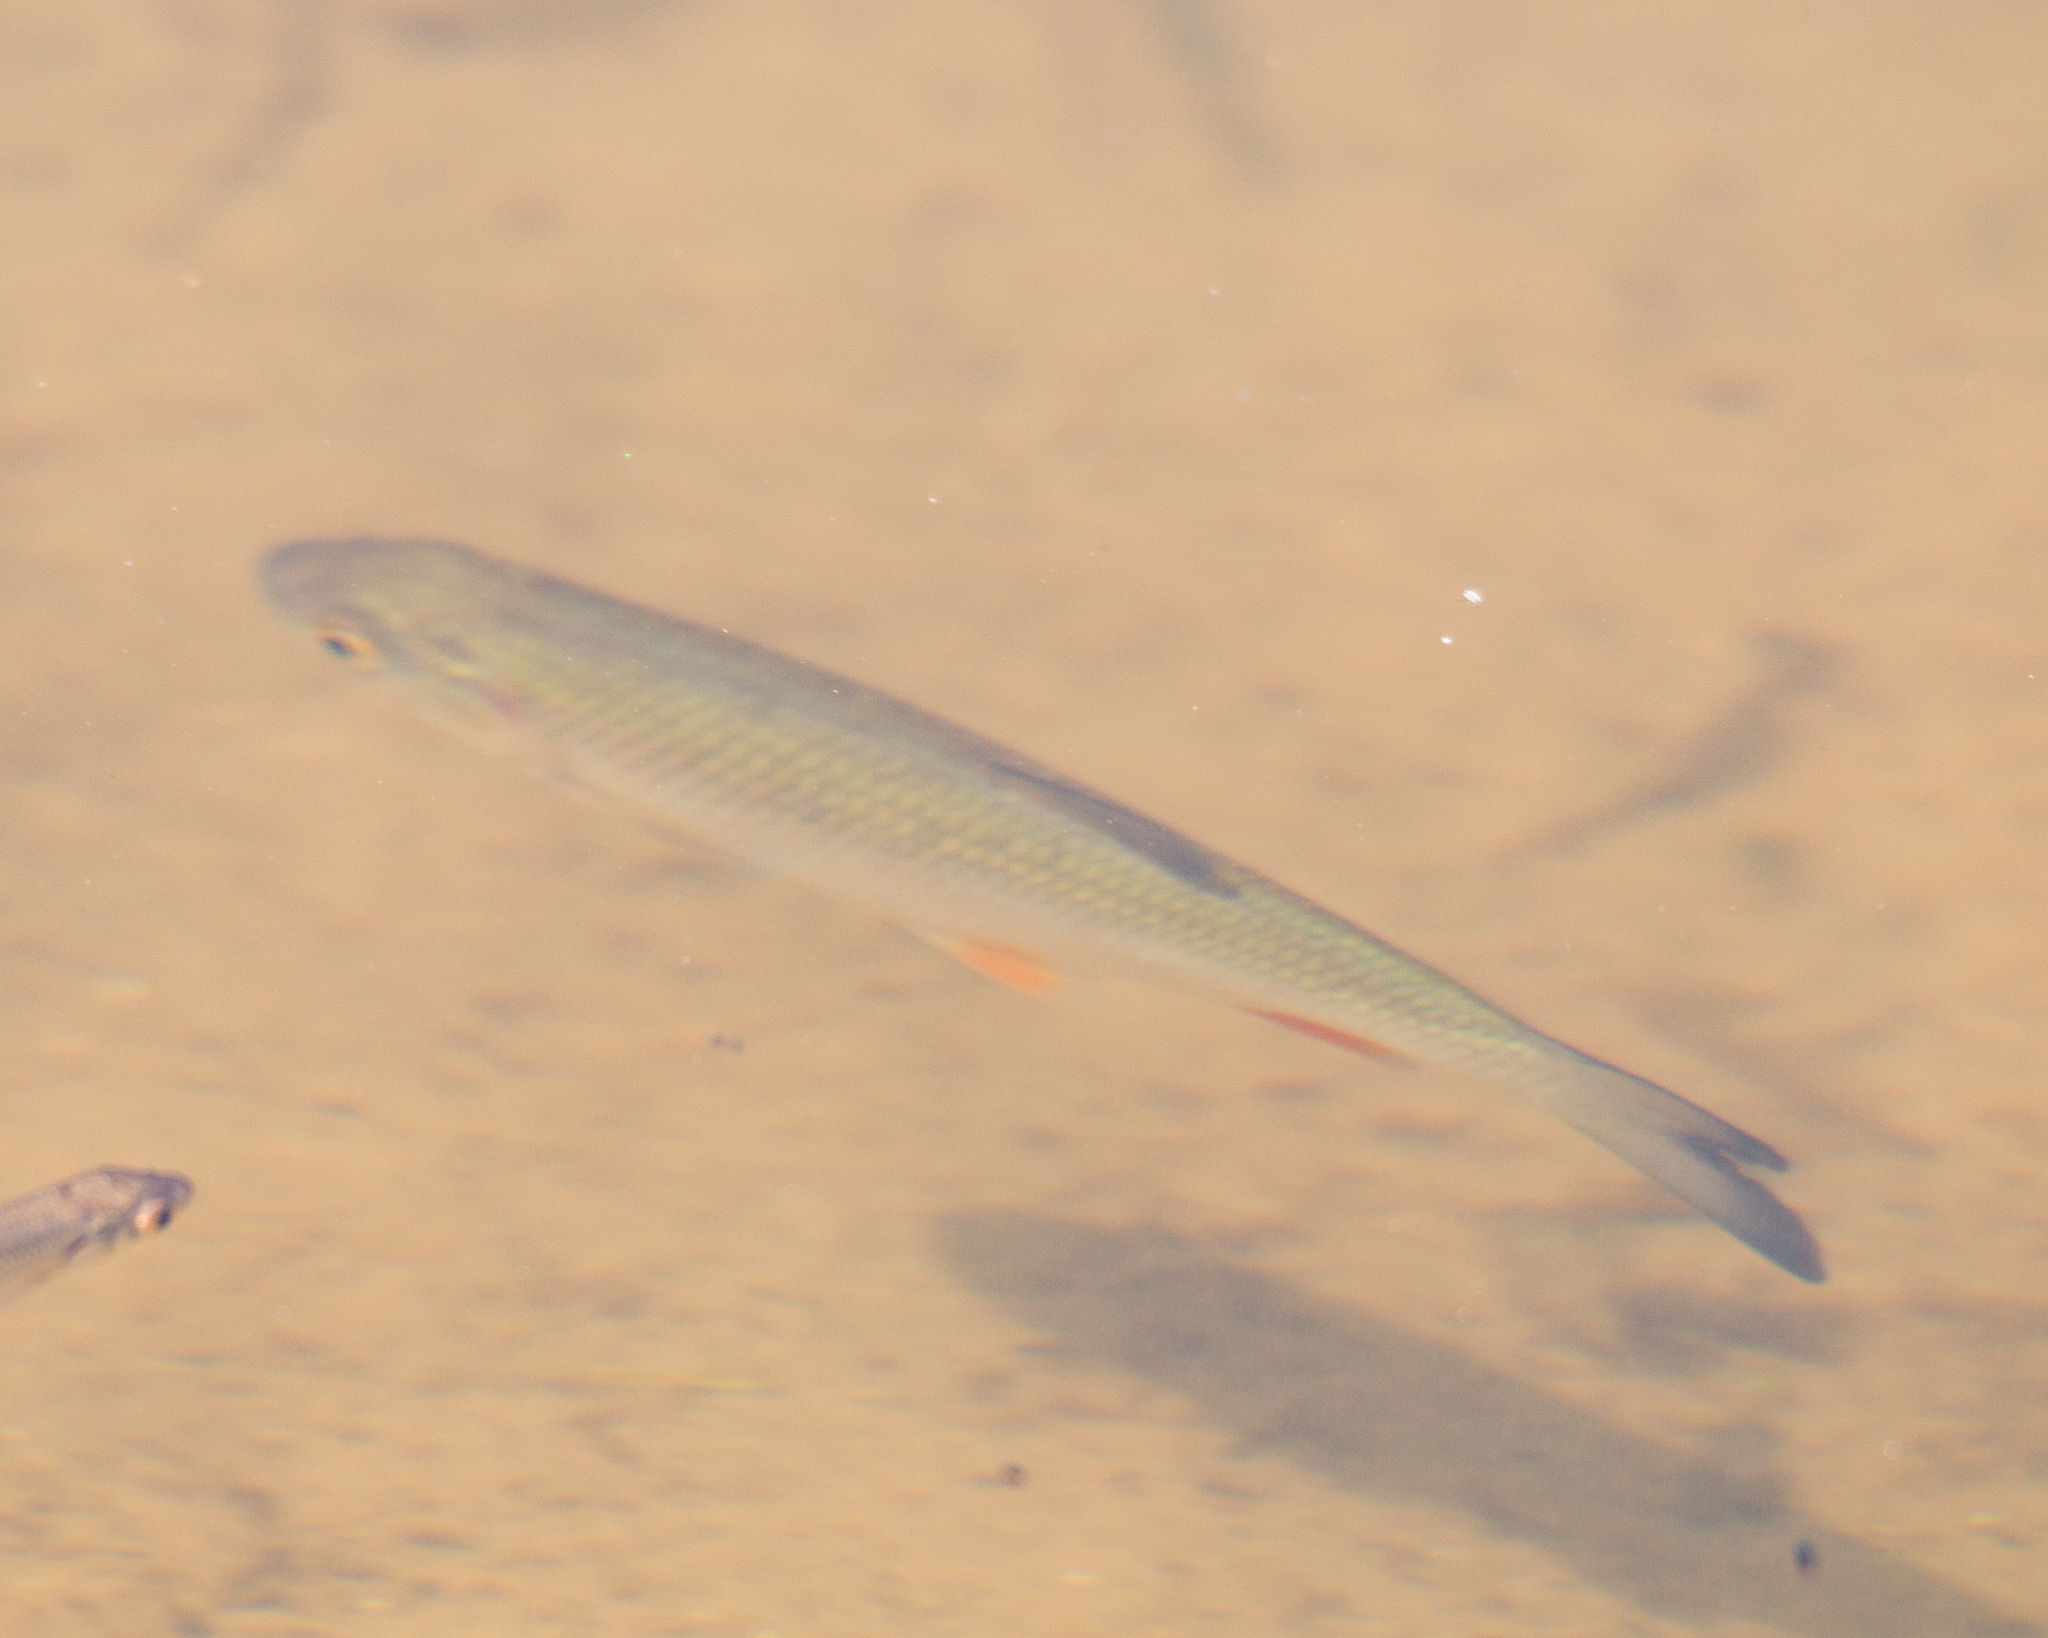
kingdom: Animalia
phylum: Chordata
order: Cypriniformes
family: Cyprinidae
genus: Squalius
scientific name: Squalius cephalus
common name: Chub
